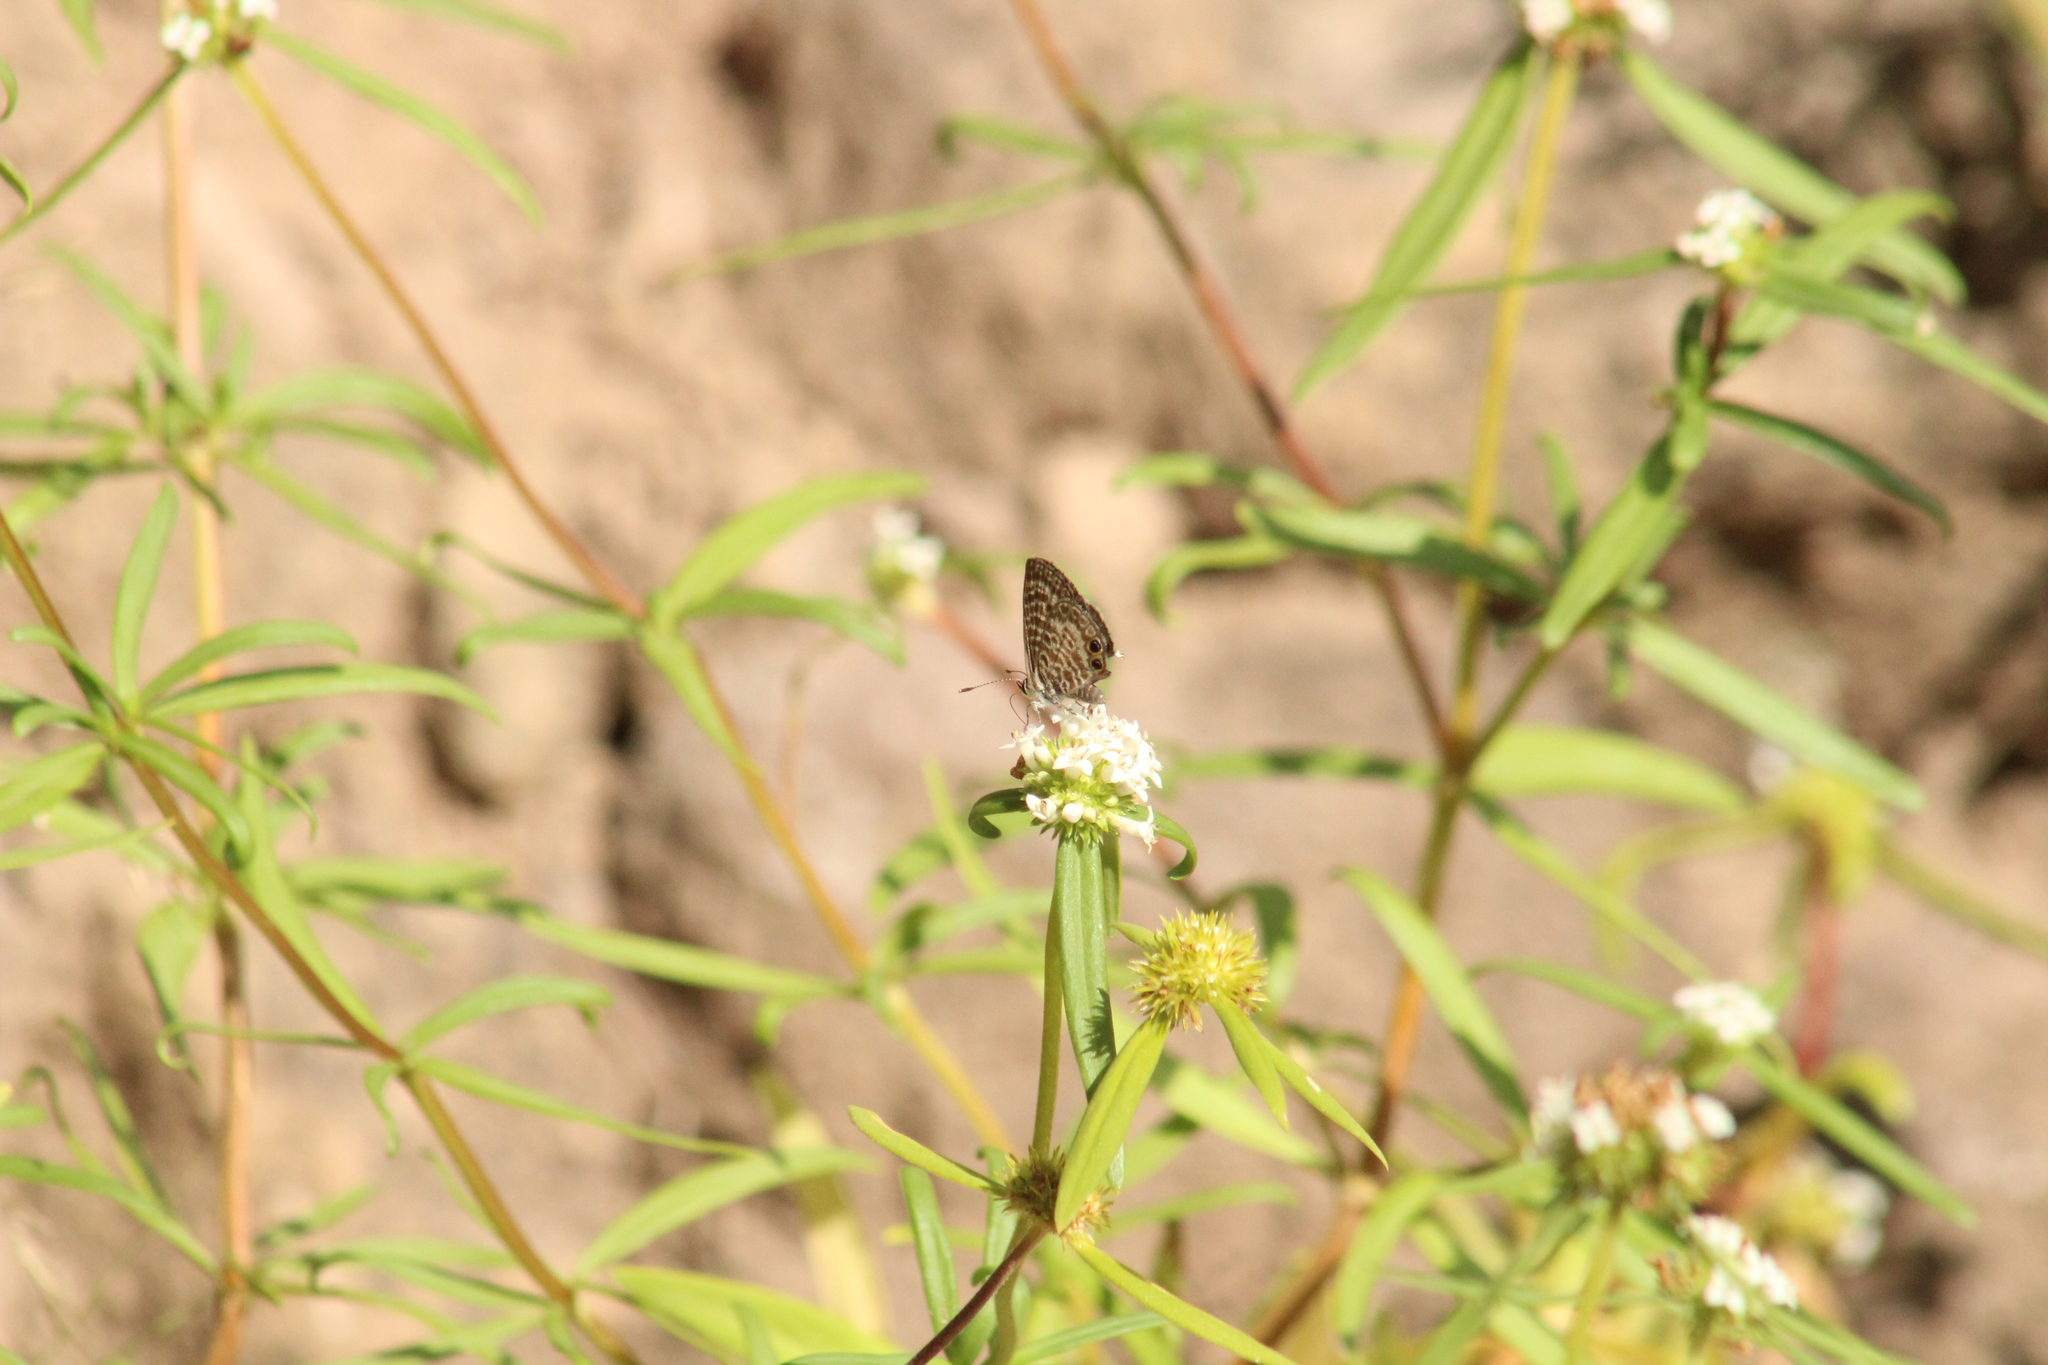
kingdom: Animalia
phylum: Arthropoda
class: Insecta
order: Lepidoptera
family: Lycaenidae
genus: Leptotes
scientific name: Leptotes cassius
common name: Cassius blue
